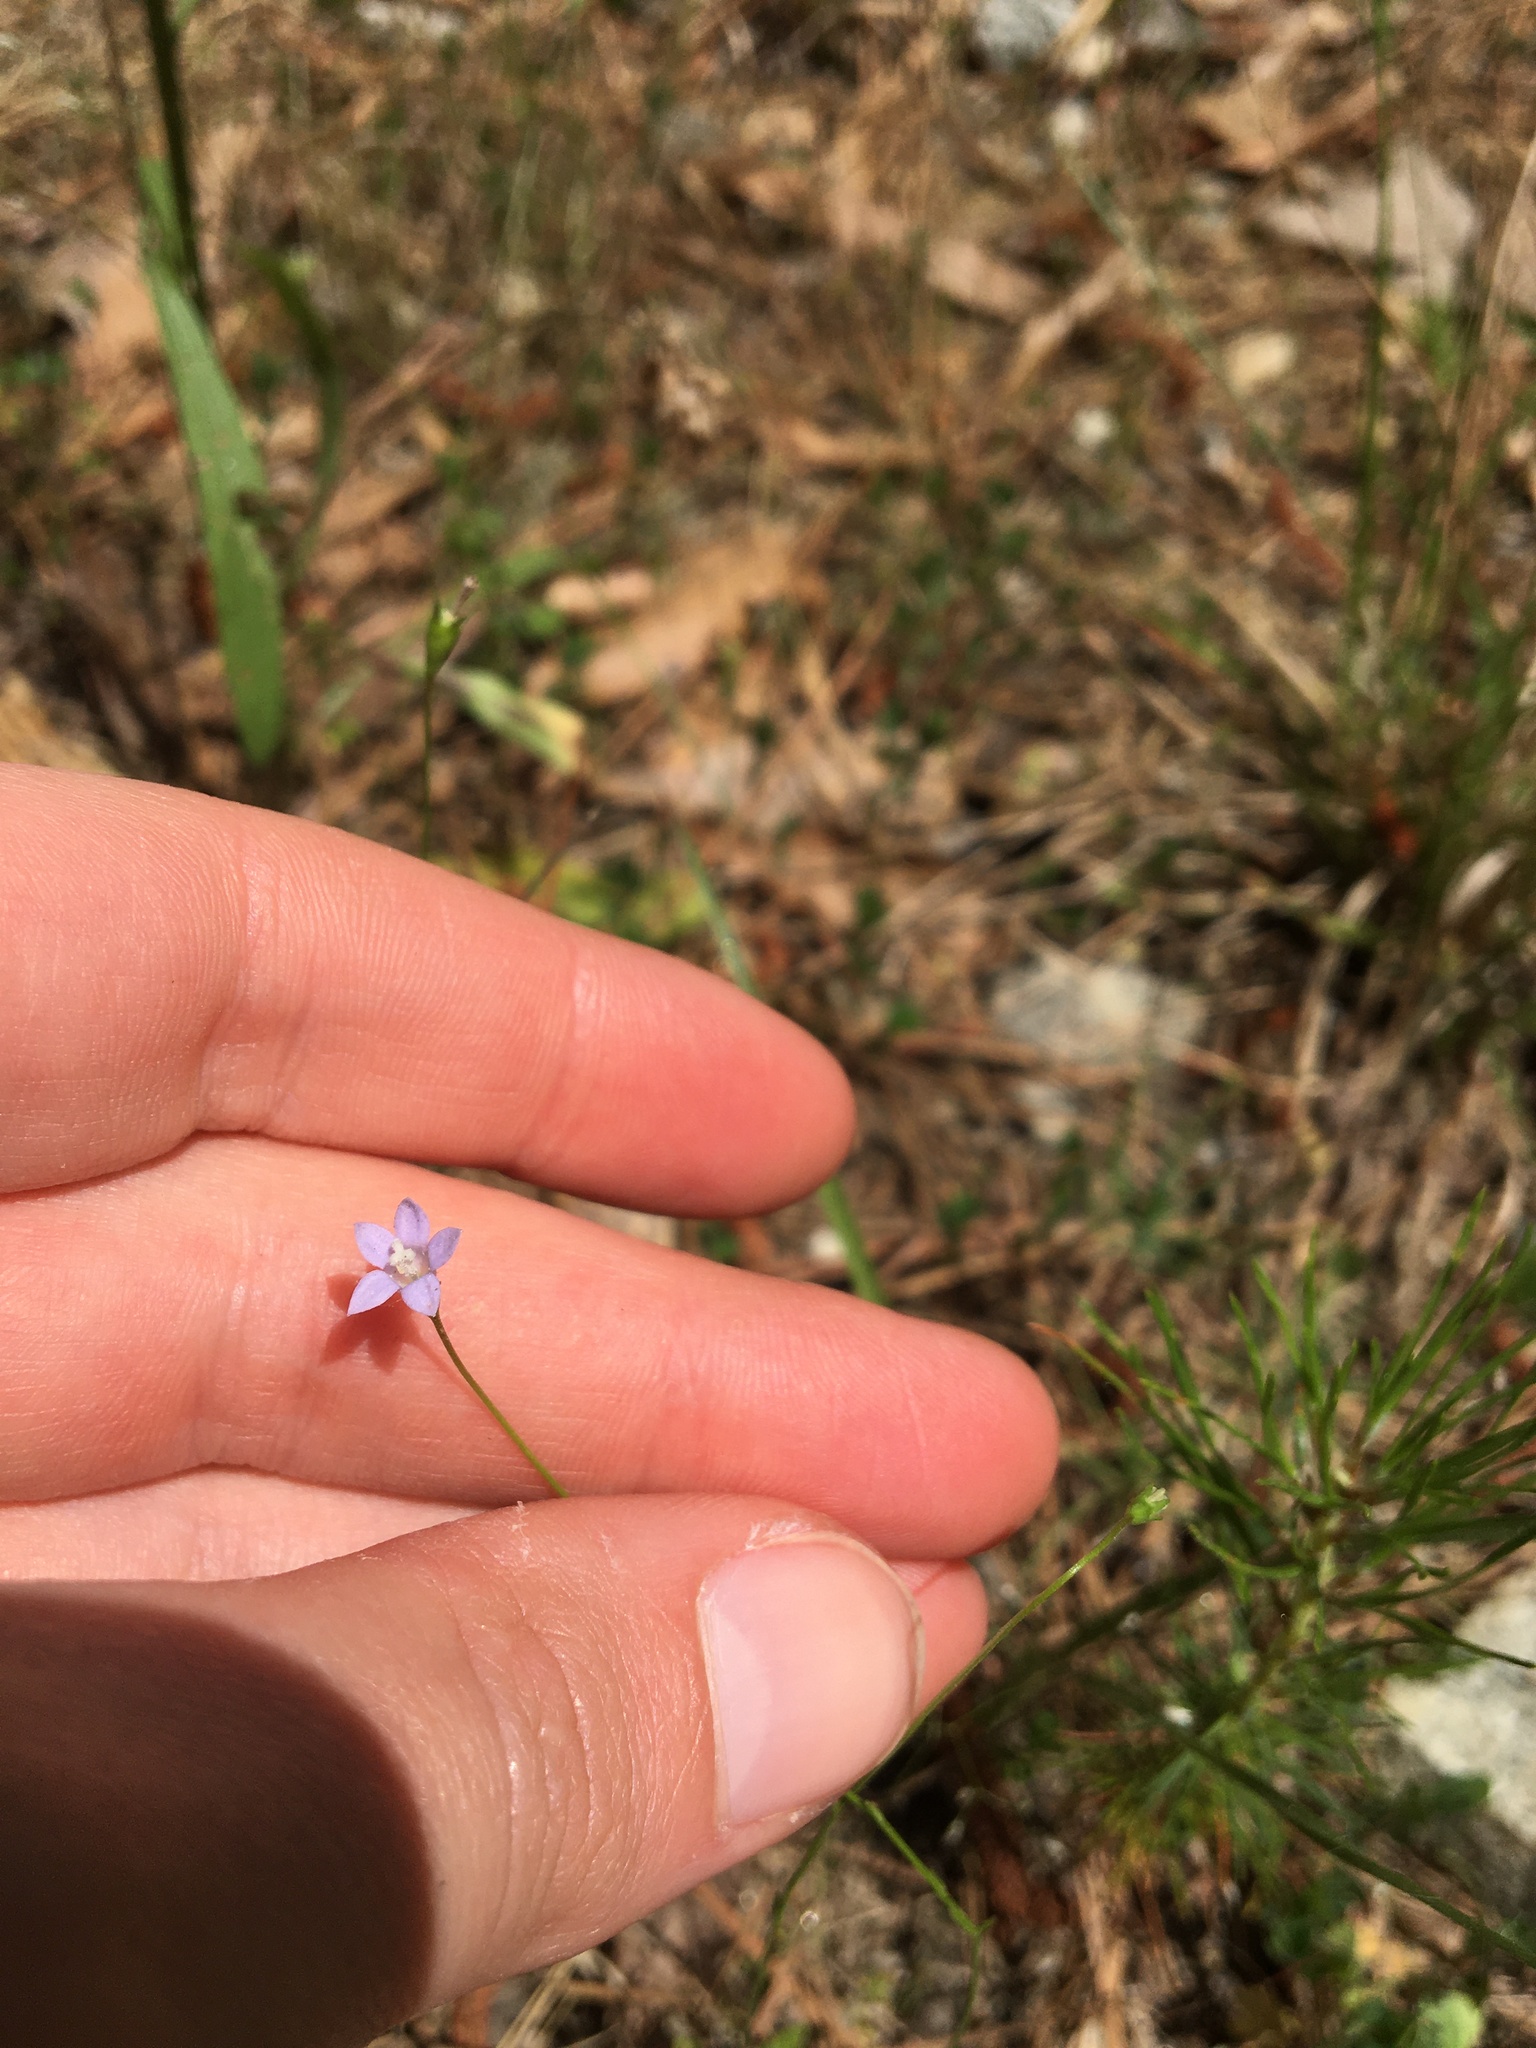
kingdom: Plantae
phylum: Tracheophyta
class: Magnoliopsida
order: Asterales
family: Campanulaceae
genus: Wahlenbergia
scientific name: Wahlenbergia marginata
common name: Southern rockbell
